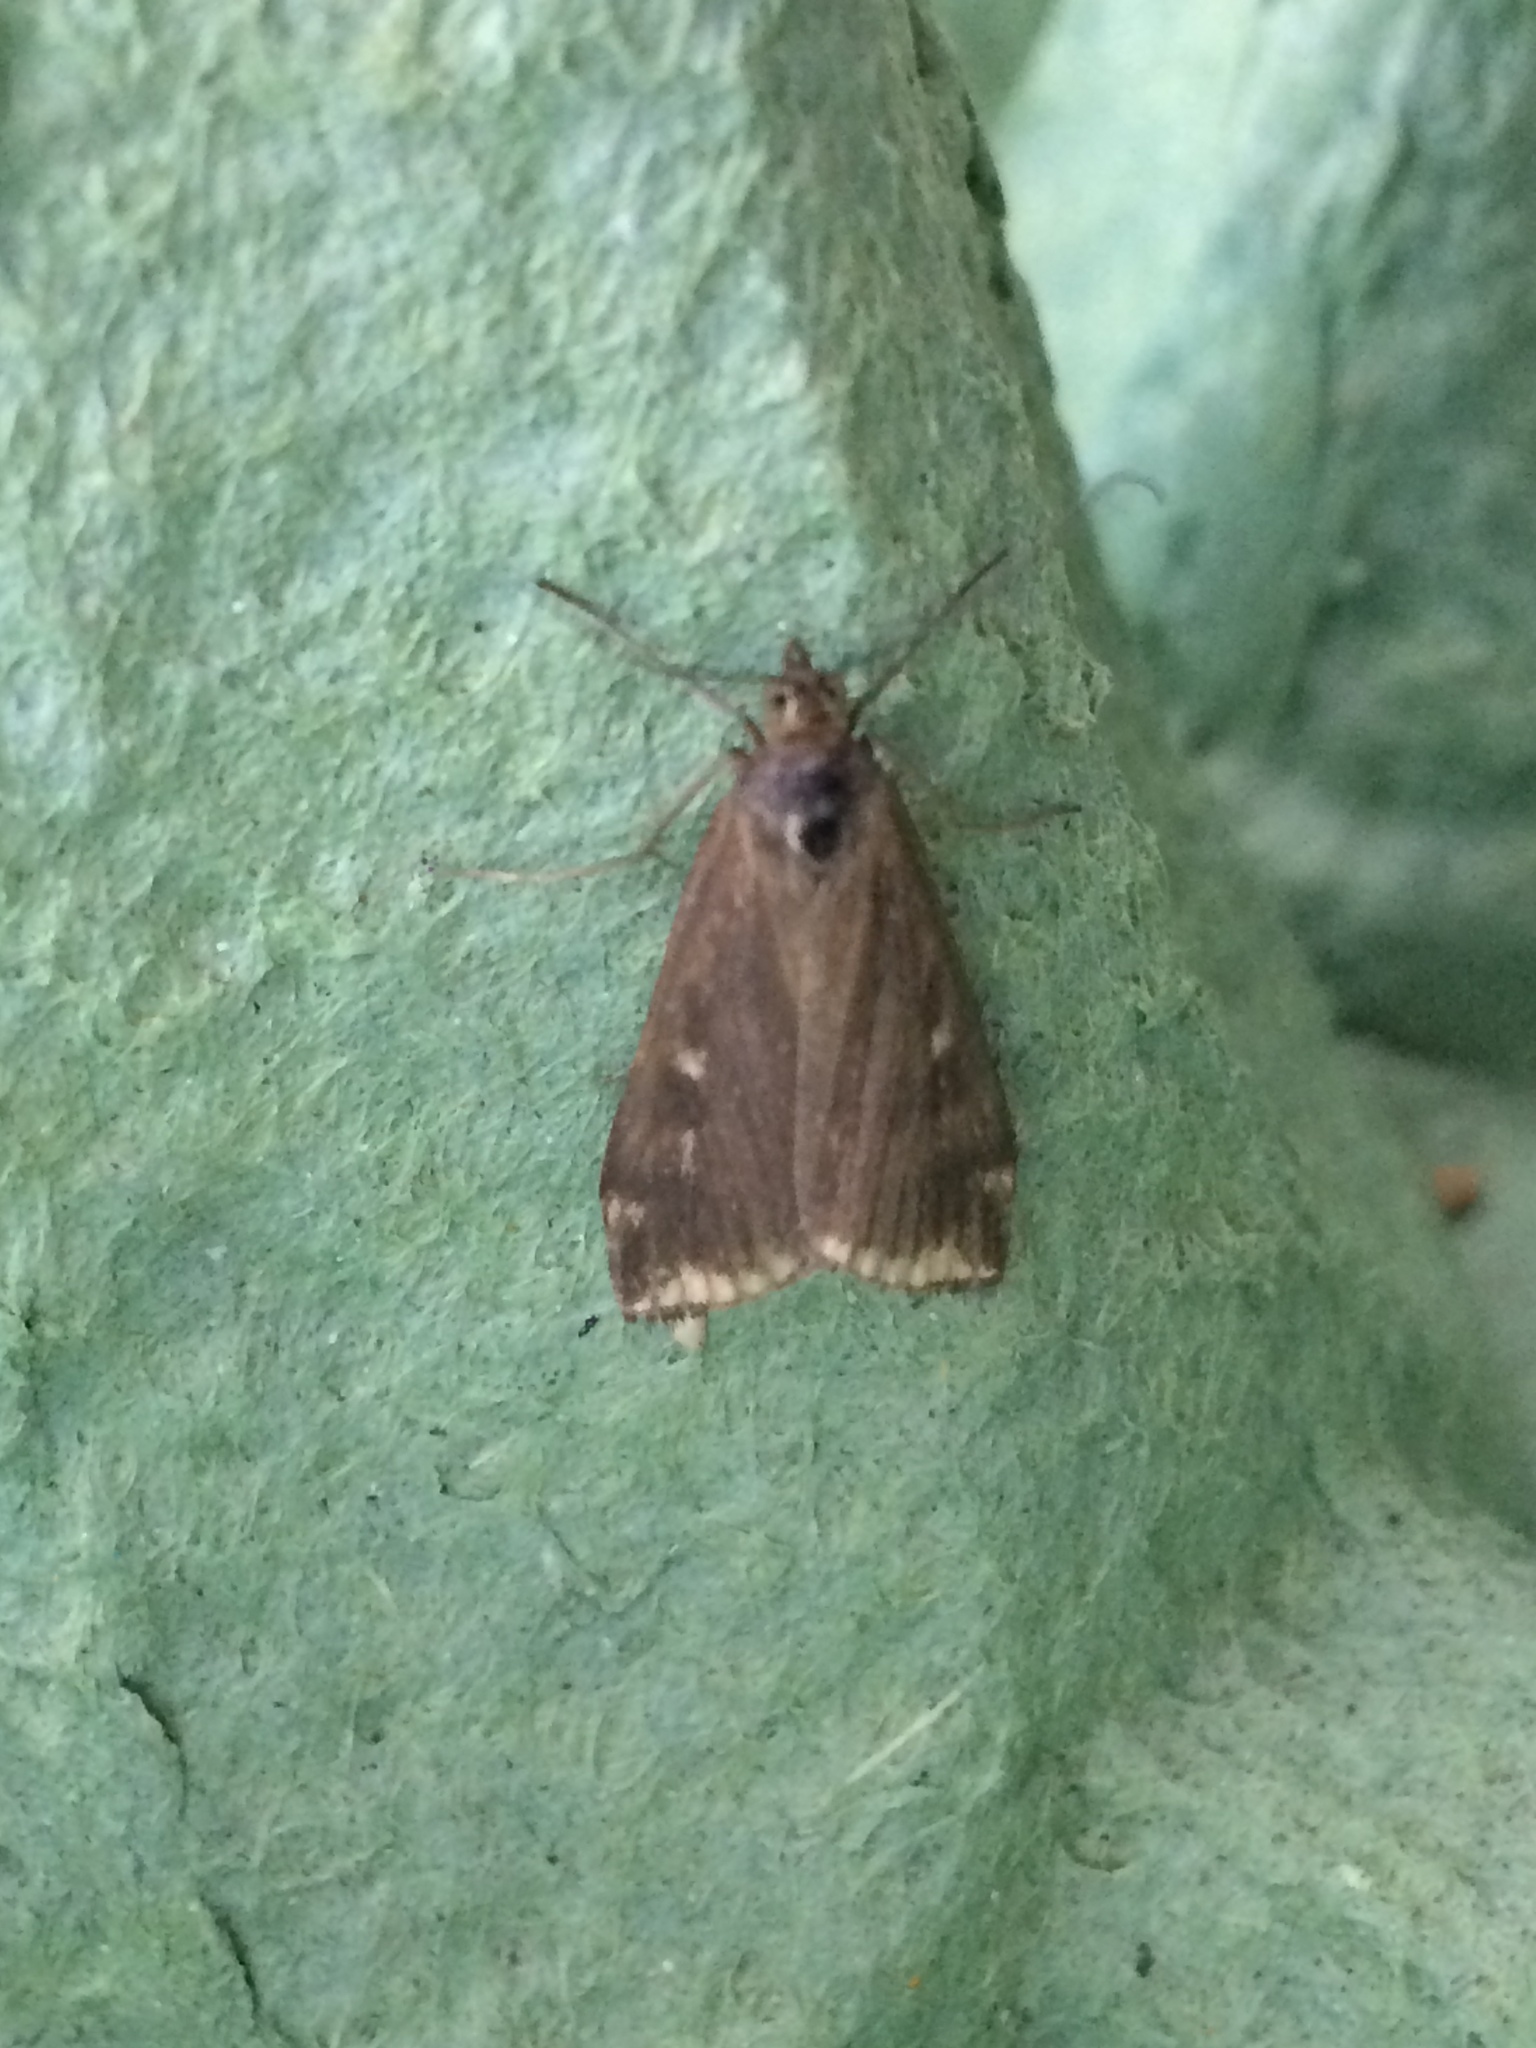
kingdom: Animalia
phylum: Arthropoda
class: Insecta
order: Lepidoptera
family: Crambidae
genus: Loxostege
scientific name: Loxostege sticticalis
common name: Crambid moth
